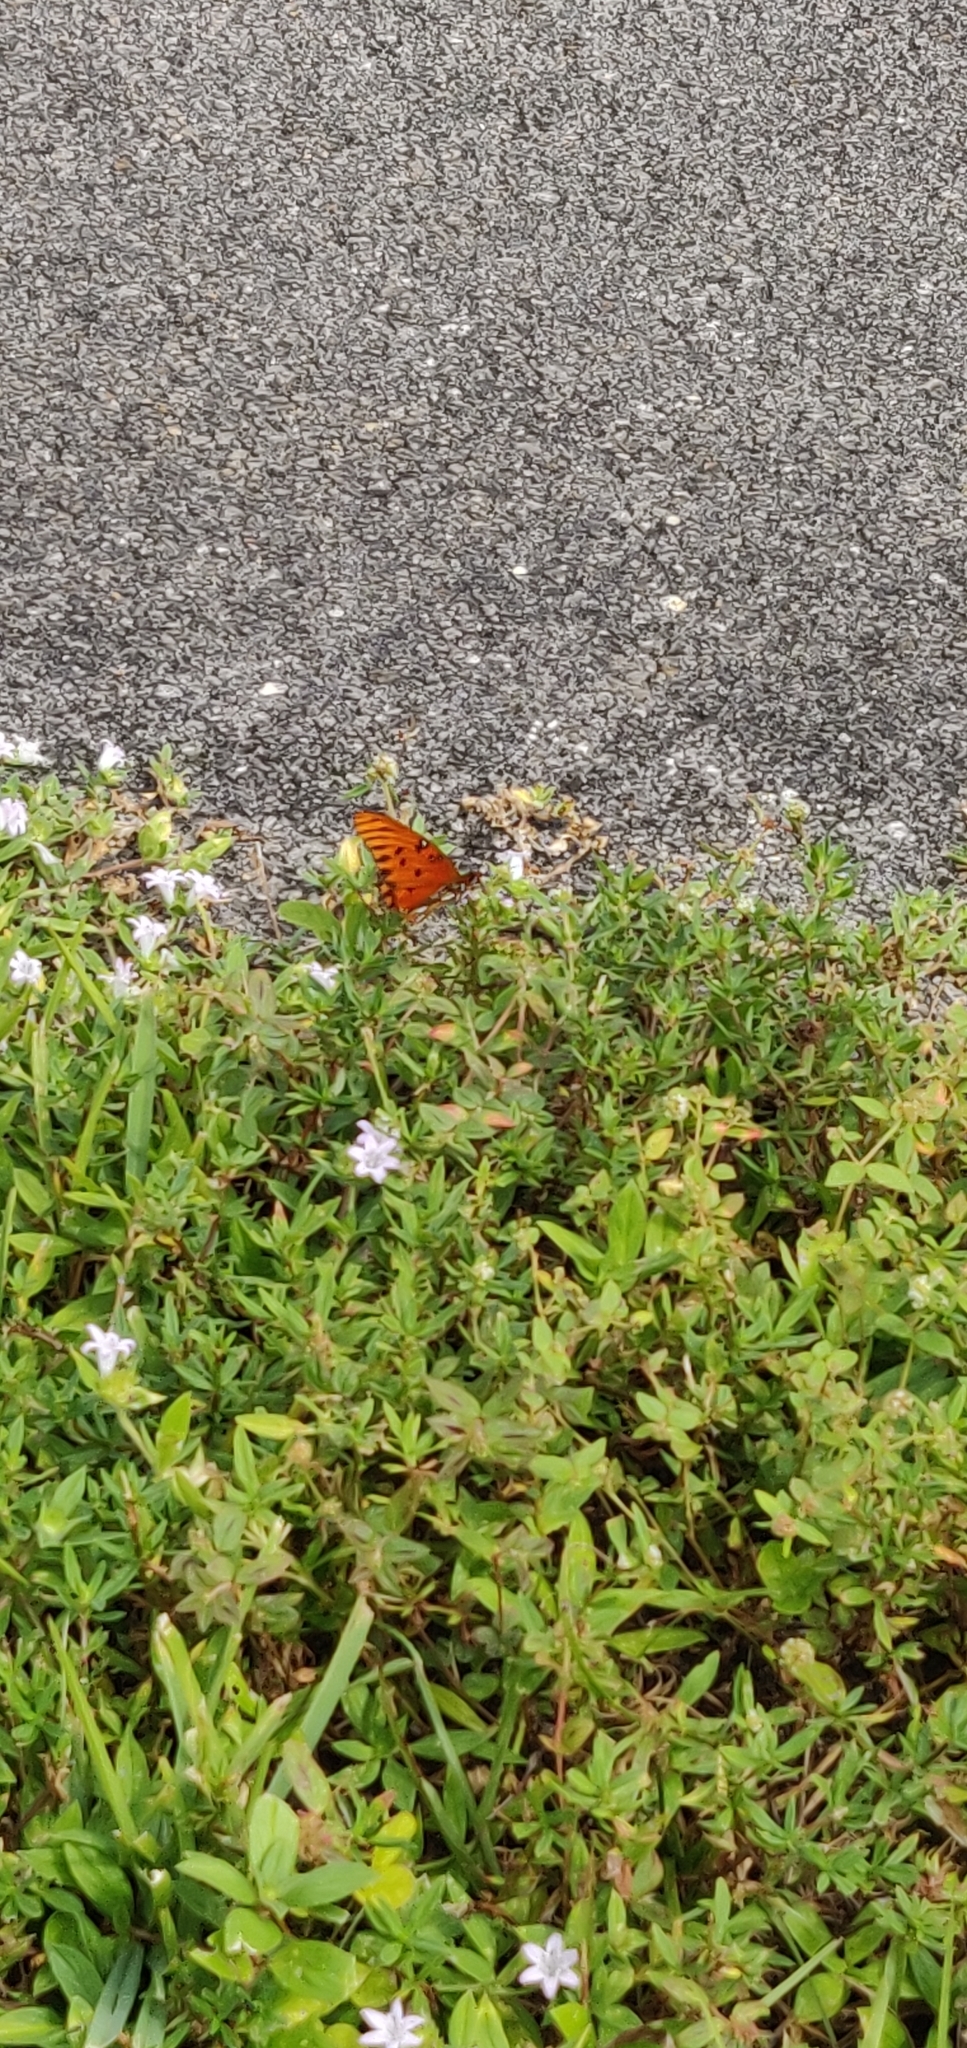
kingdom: Animalia
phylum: Arthropoda
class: Insecta
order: Lepidoptera
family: Nymphalidae
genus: Dione
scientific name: Dione vanillae
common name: Gulf fritillary
